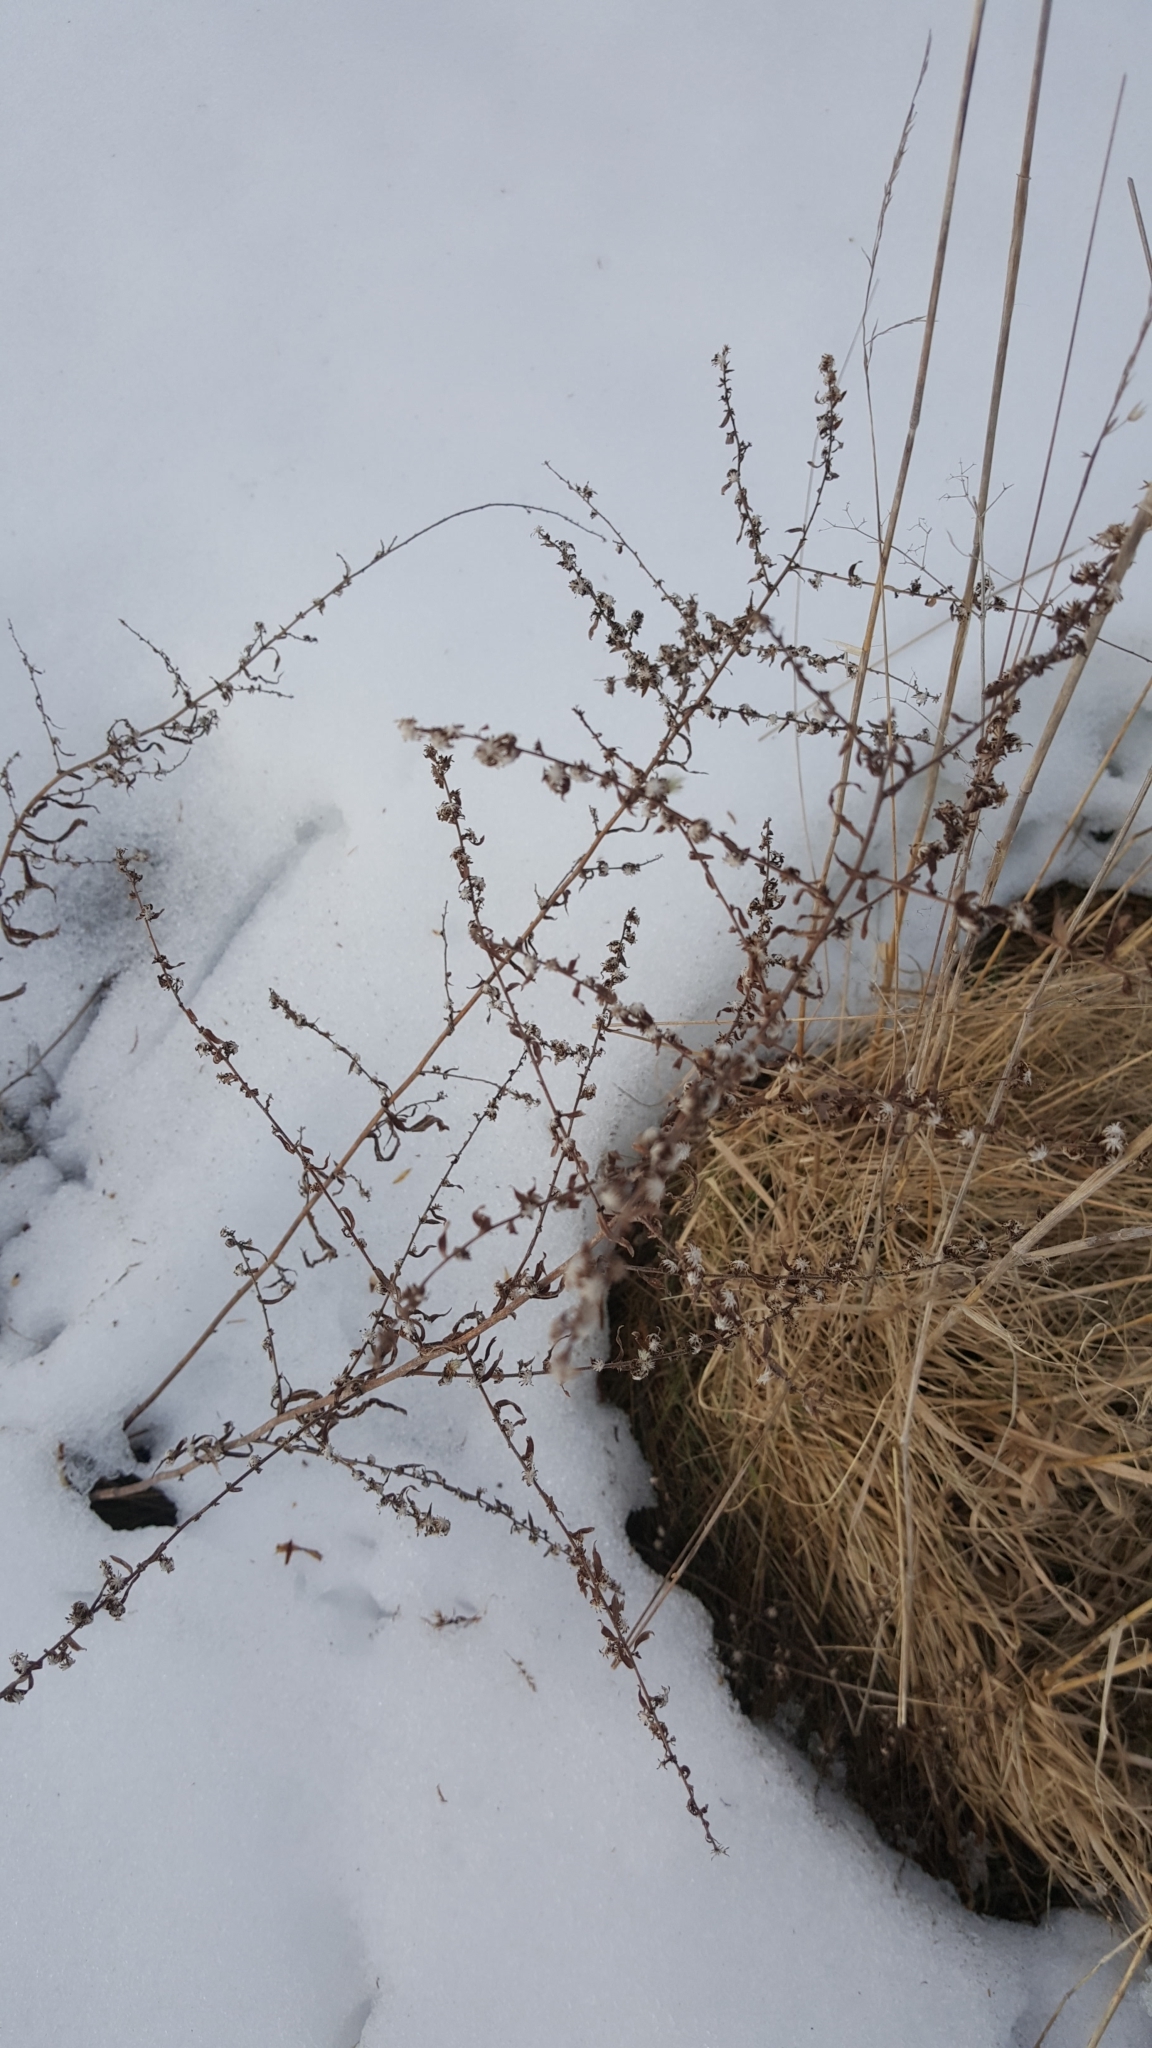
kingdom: Plantae
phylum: Tracheophyta
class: Magnoliopsida
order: Asterales
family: Asteraceae
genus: Symphyotrichum
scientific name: Symphyotrichum lateriflorum
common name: Calico aster
